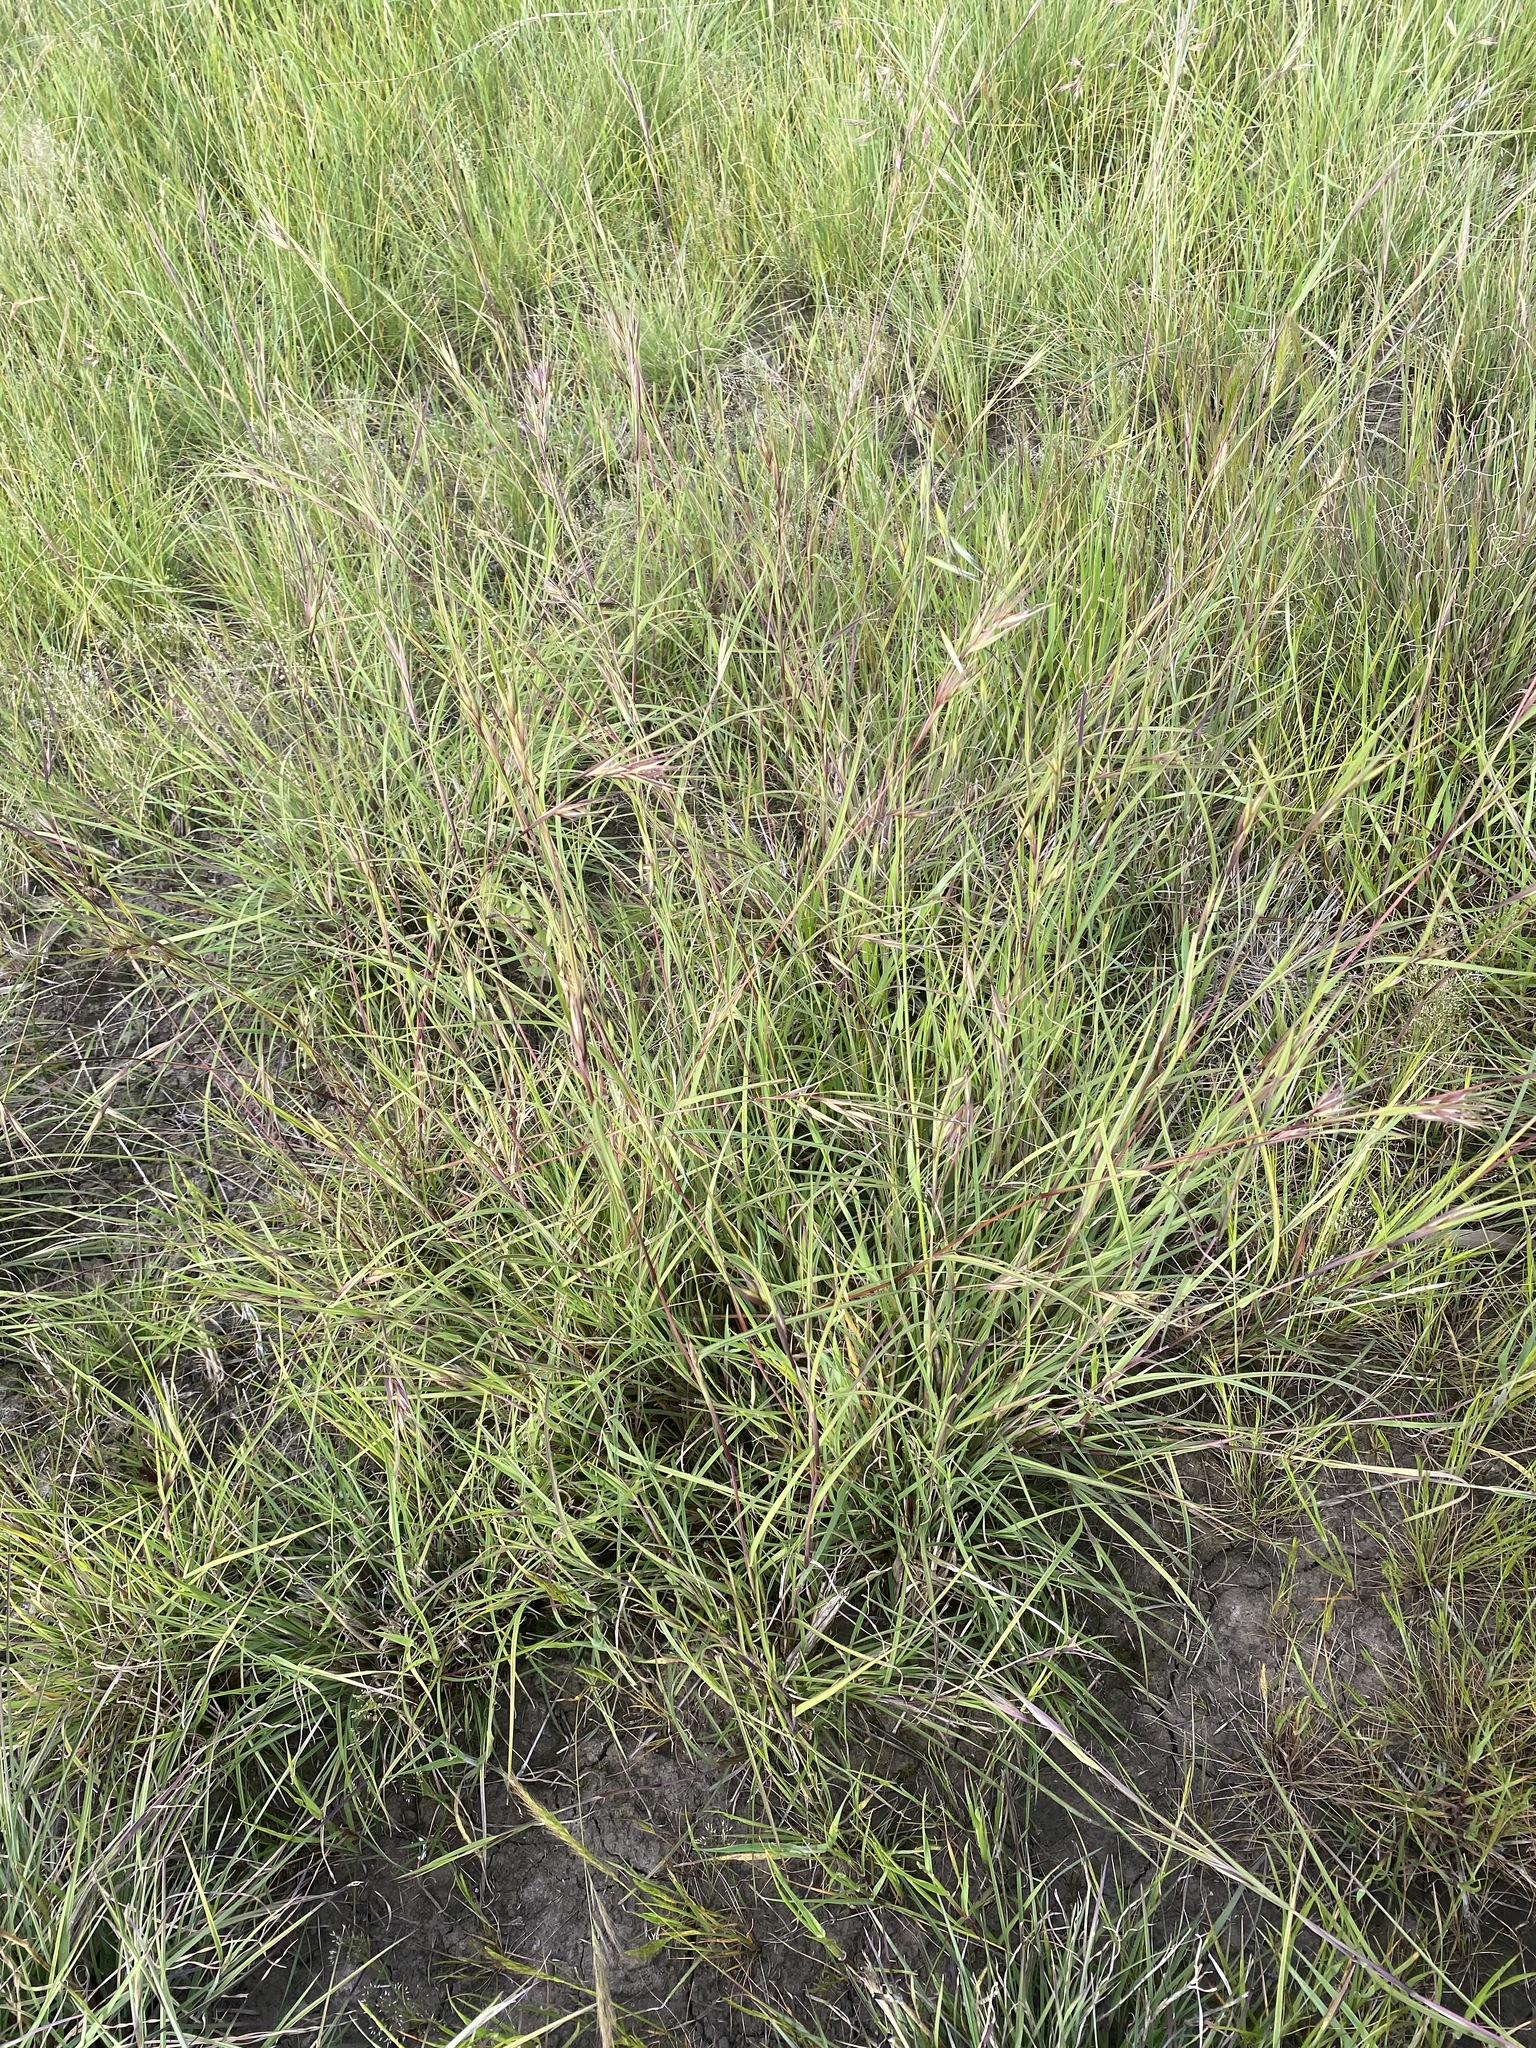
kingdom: Plantae
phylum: Tracheophyta
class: Liliopsida
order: Poales
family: Poaceae
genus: Themeda
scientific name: Themeda triandra
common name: Kangaroo grass
